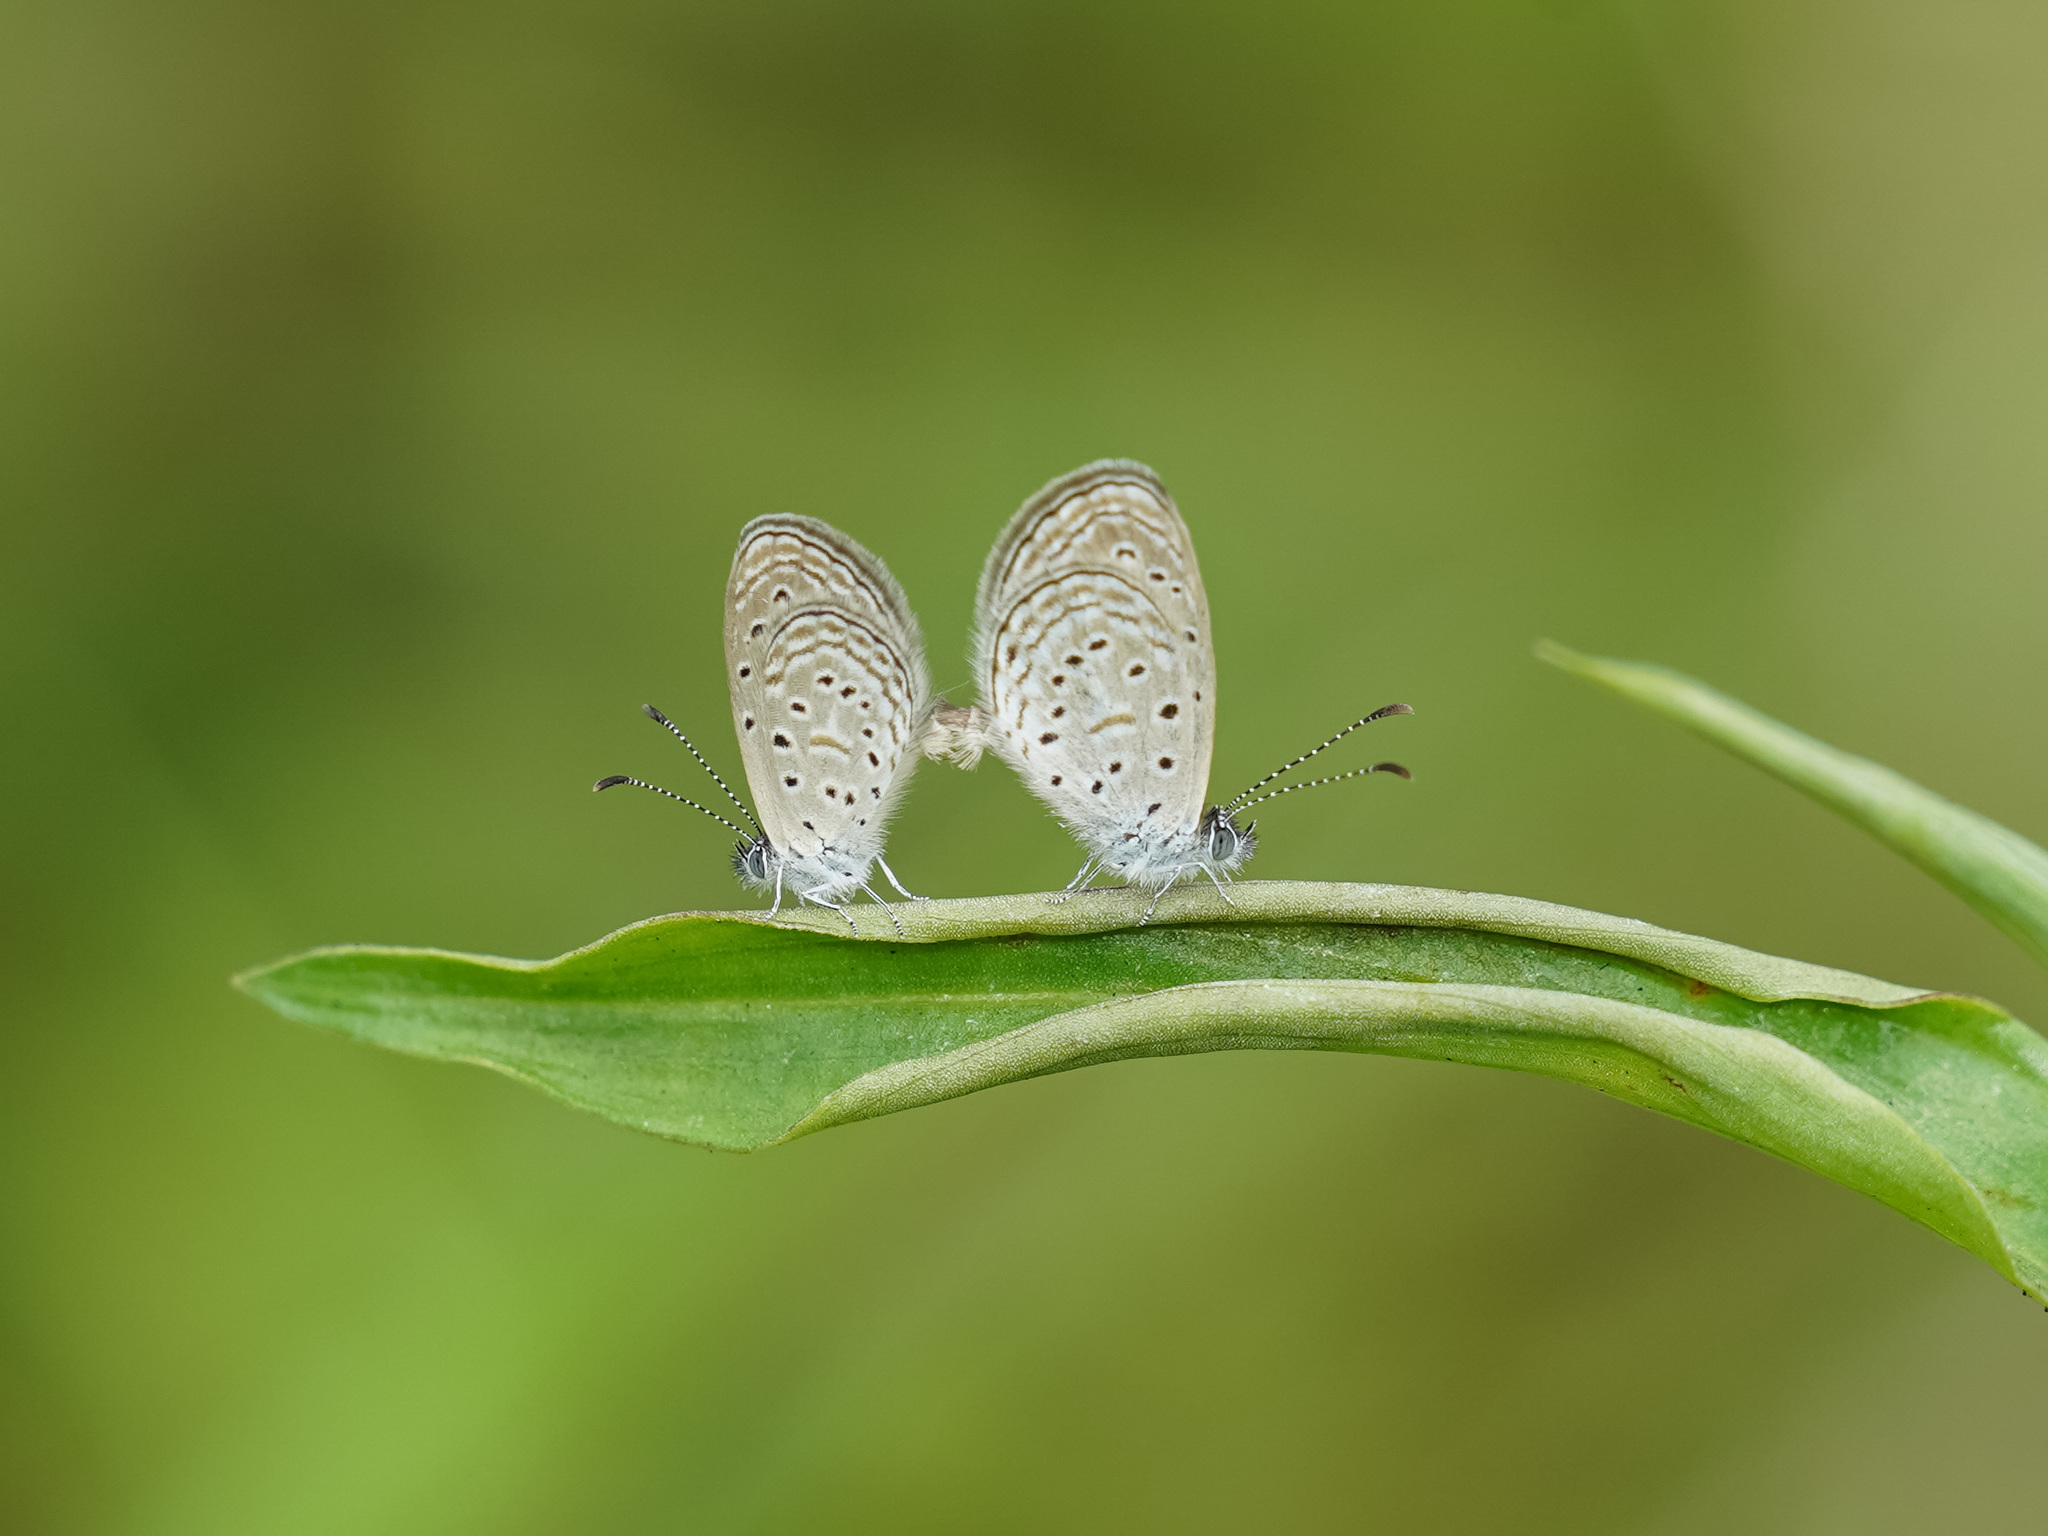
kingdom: Animalia
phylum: Arthropoda
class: Insecta
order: Lepidoptera
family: Lycaenidae
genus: Zizula
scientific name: Zizula hylax
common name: Gaika blue
